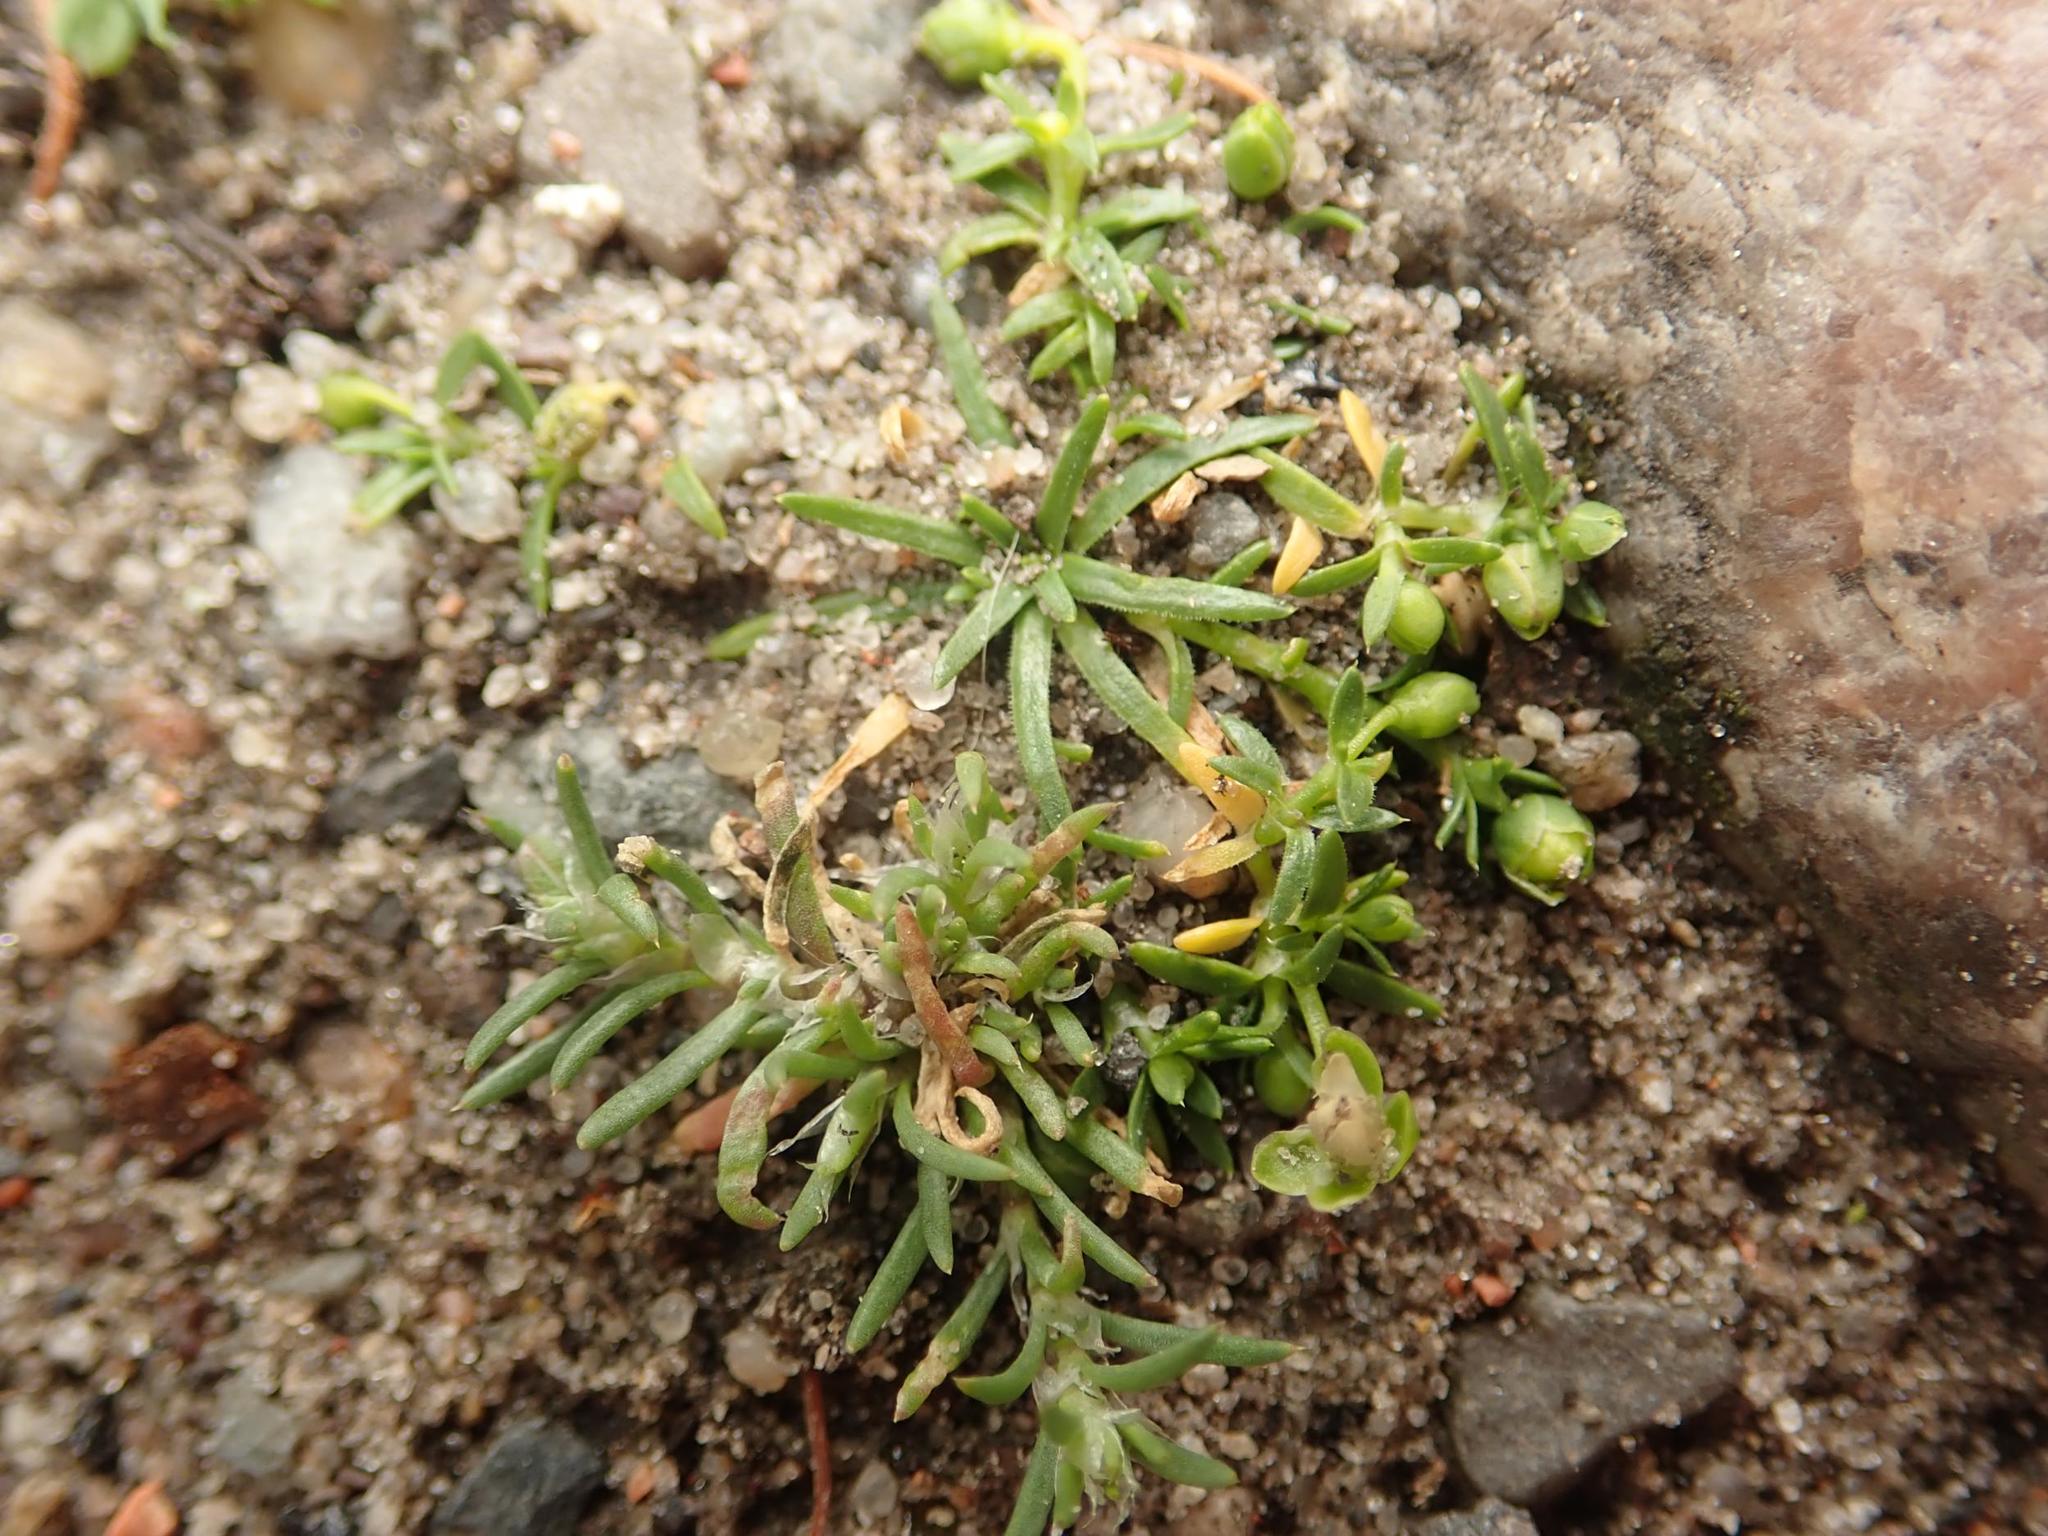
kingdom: Plantae
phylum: Tracheophyta
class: Magnoliopsida
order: Caryophyllales
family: Caryophyllaceae
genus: Sagina
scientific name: Sagina procumbens
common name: Procumbent pearlwort
